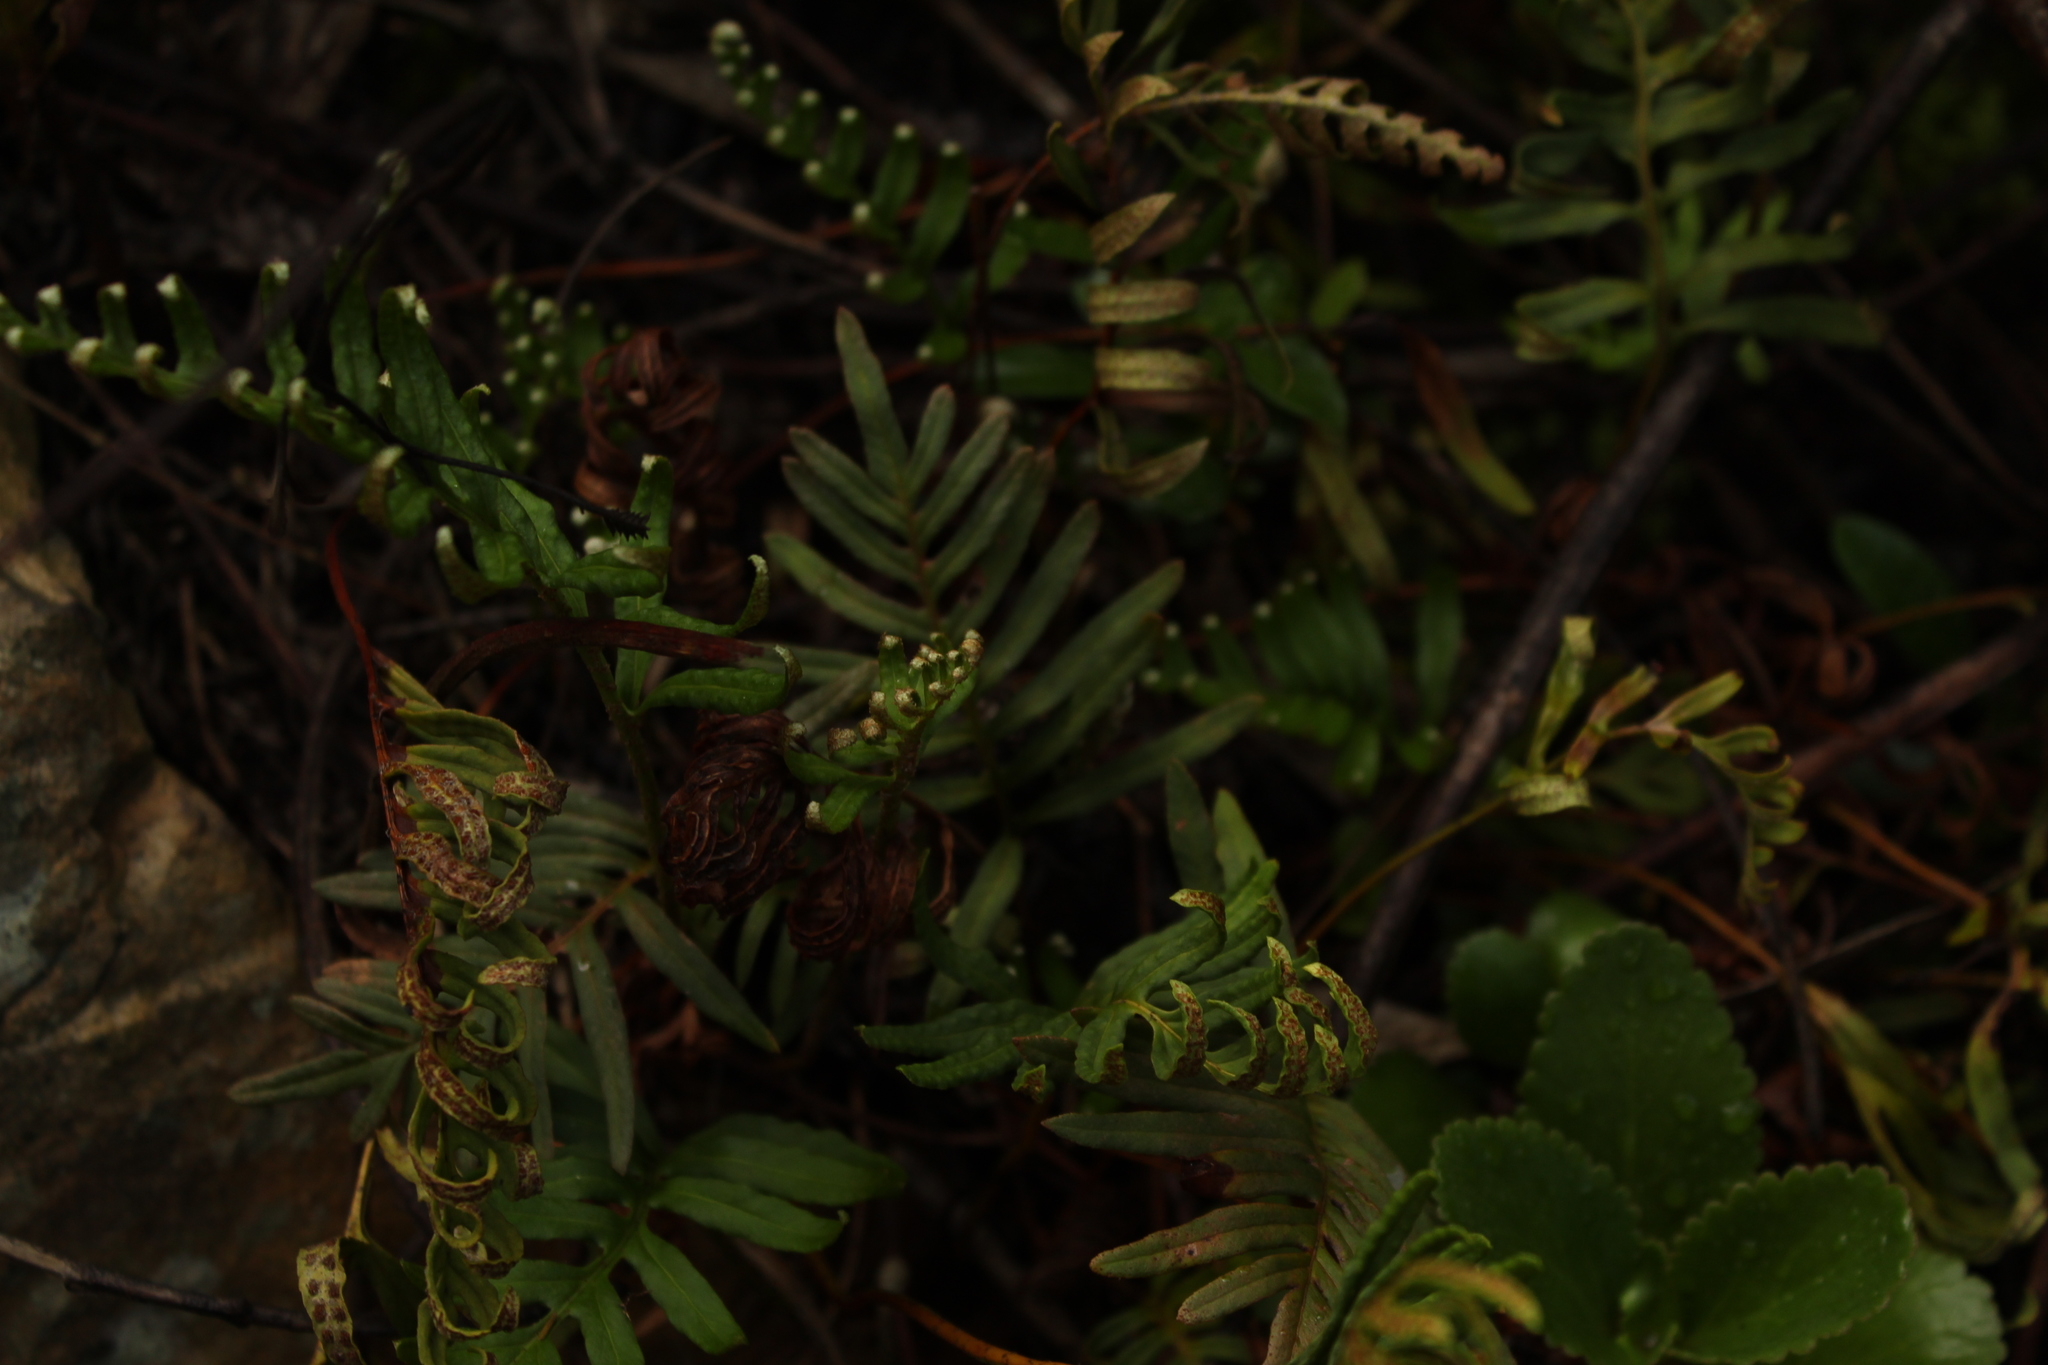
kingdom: Plantae
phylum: Tracheophyta
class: Polypodiopsida
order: Polypodiales
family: Polypodiaceae
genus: Pleopeltis
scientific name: Pleopeltis orientalis
